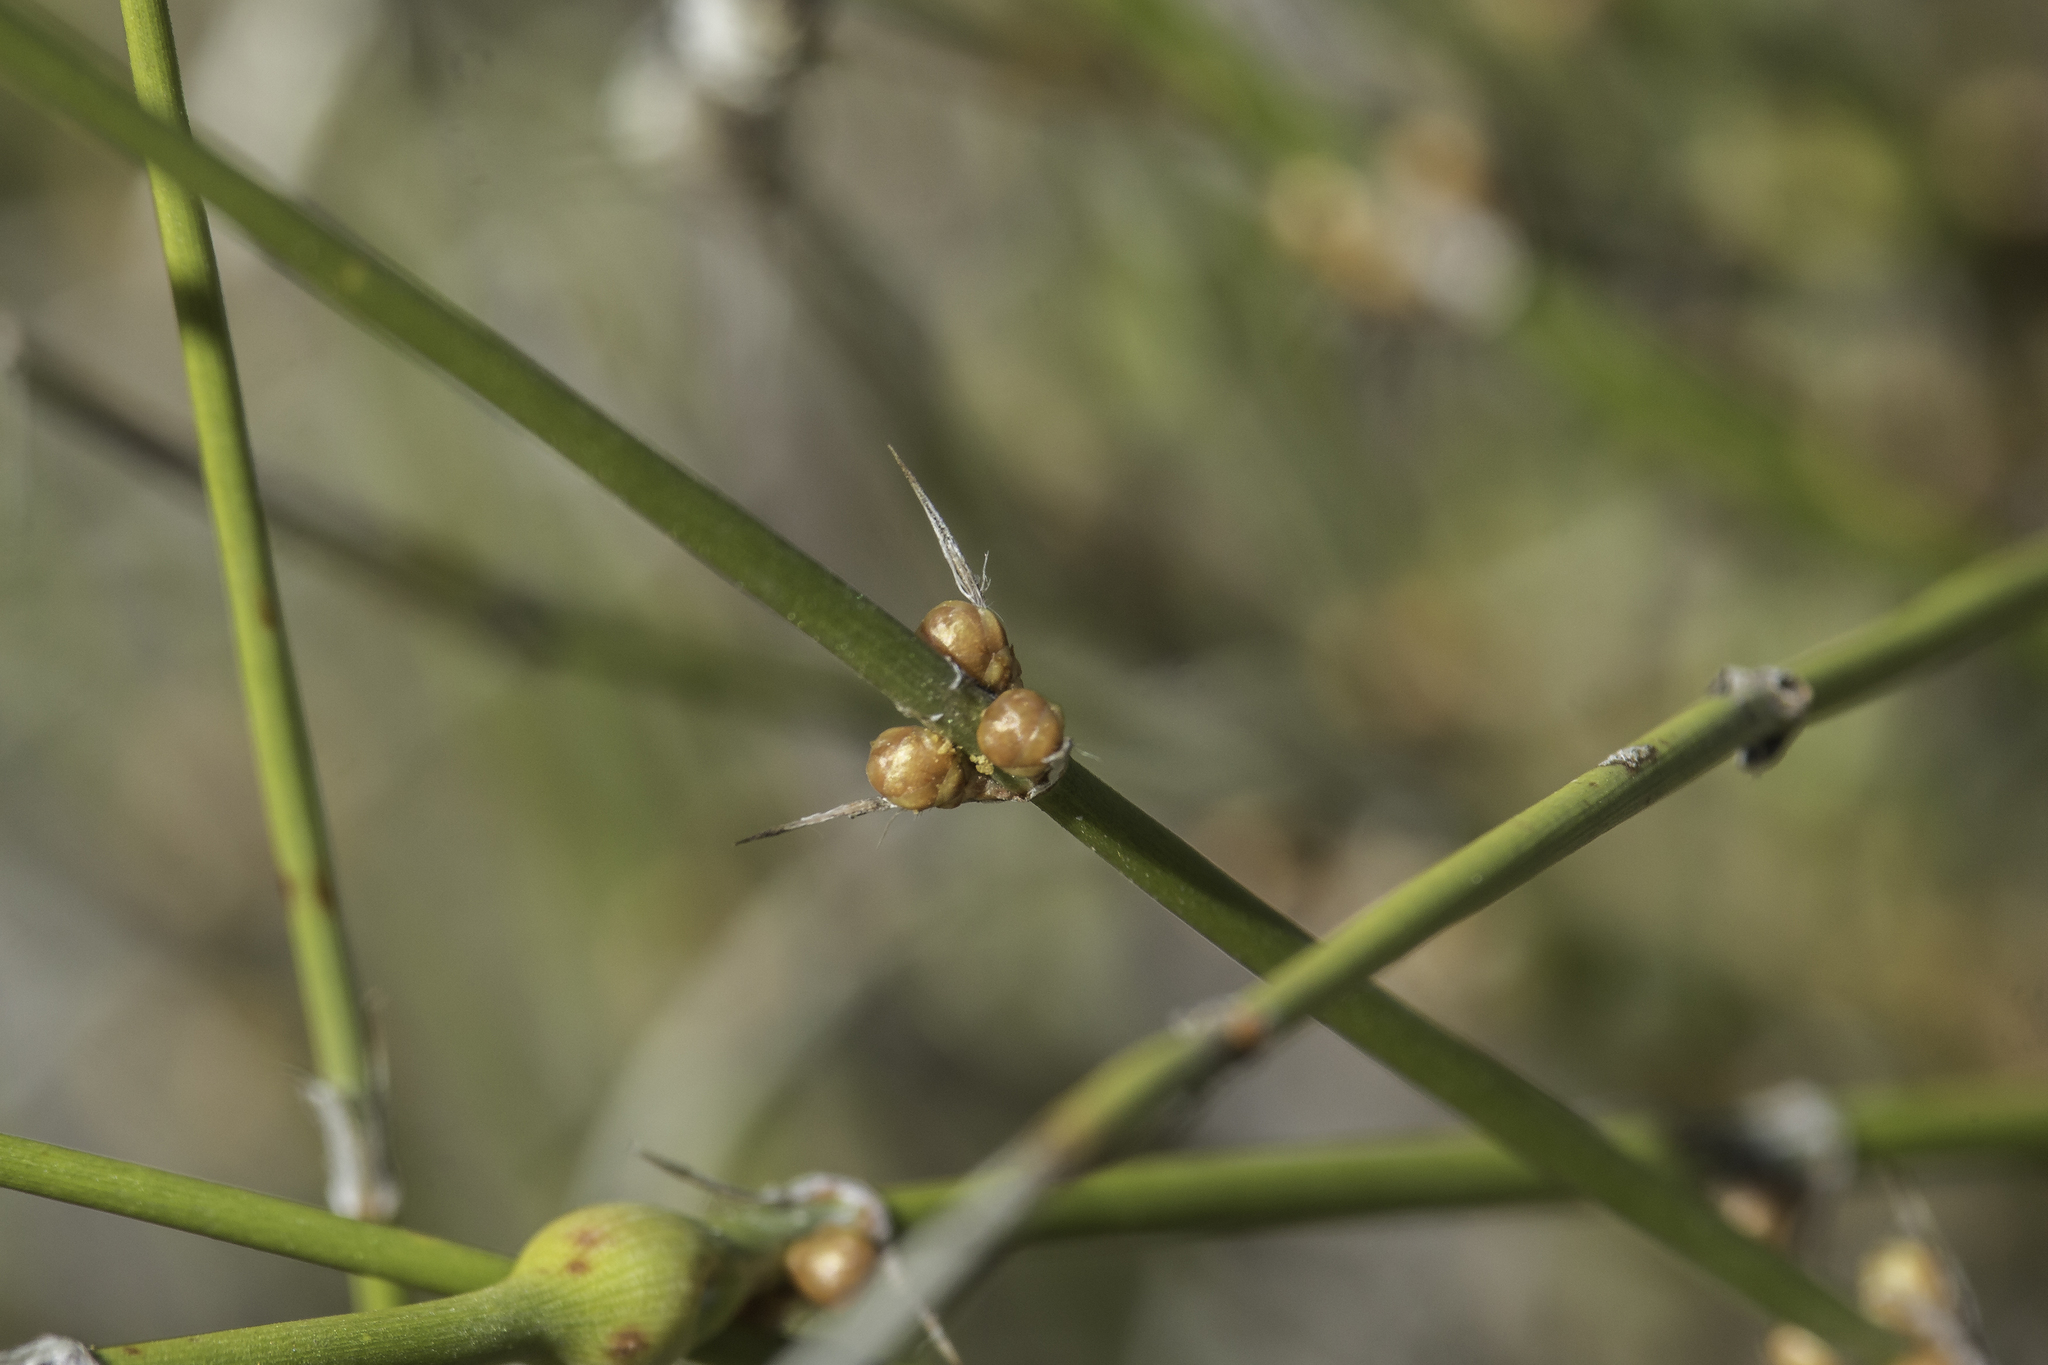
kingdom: Plantae
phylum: Tracheophyta
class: Gnetopsida
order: Ephedrales
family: Ephedraceae
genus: Ephedra
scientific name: Ephedra trifurca
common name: Mexican-tea
